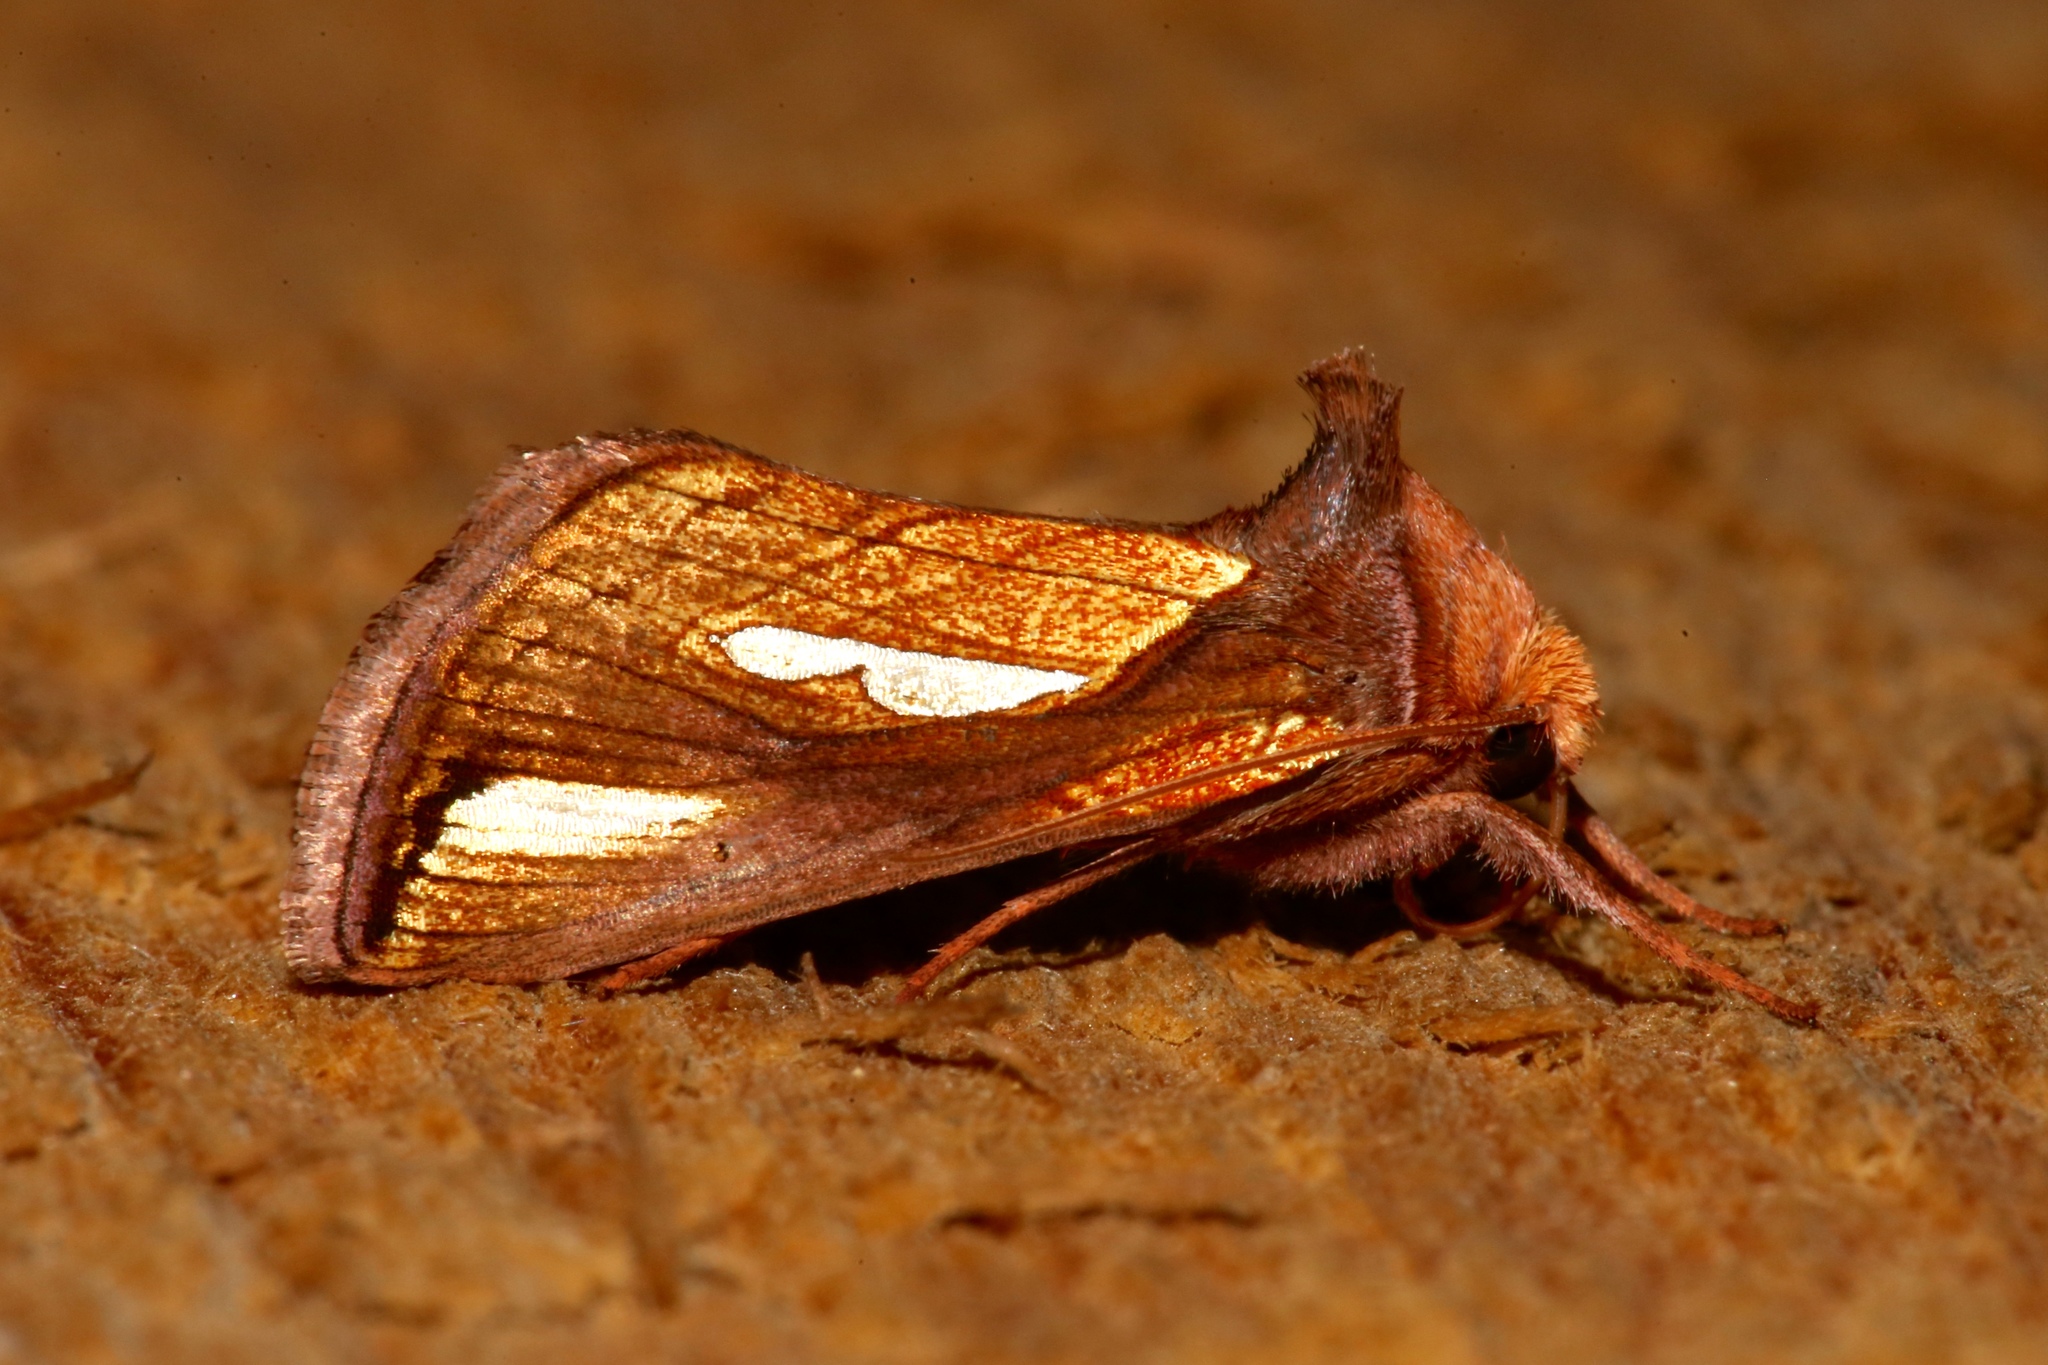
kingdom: Animalia
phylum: Arthropoda
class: Insecta
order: Lepidoptera
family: Noctuidae
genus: Plusia
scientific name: Plusia contexta
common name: Connected looper moth
